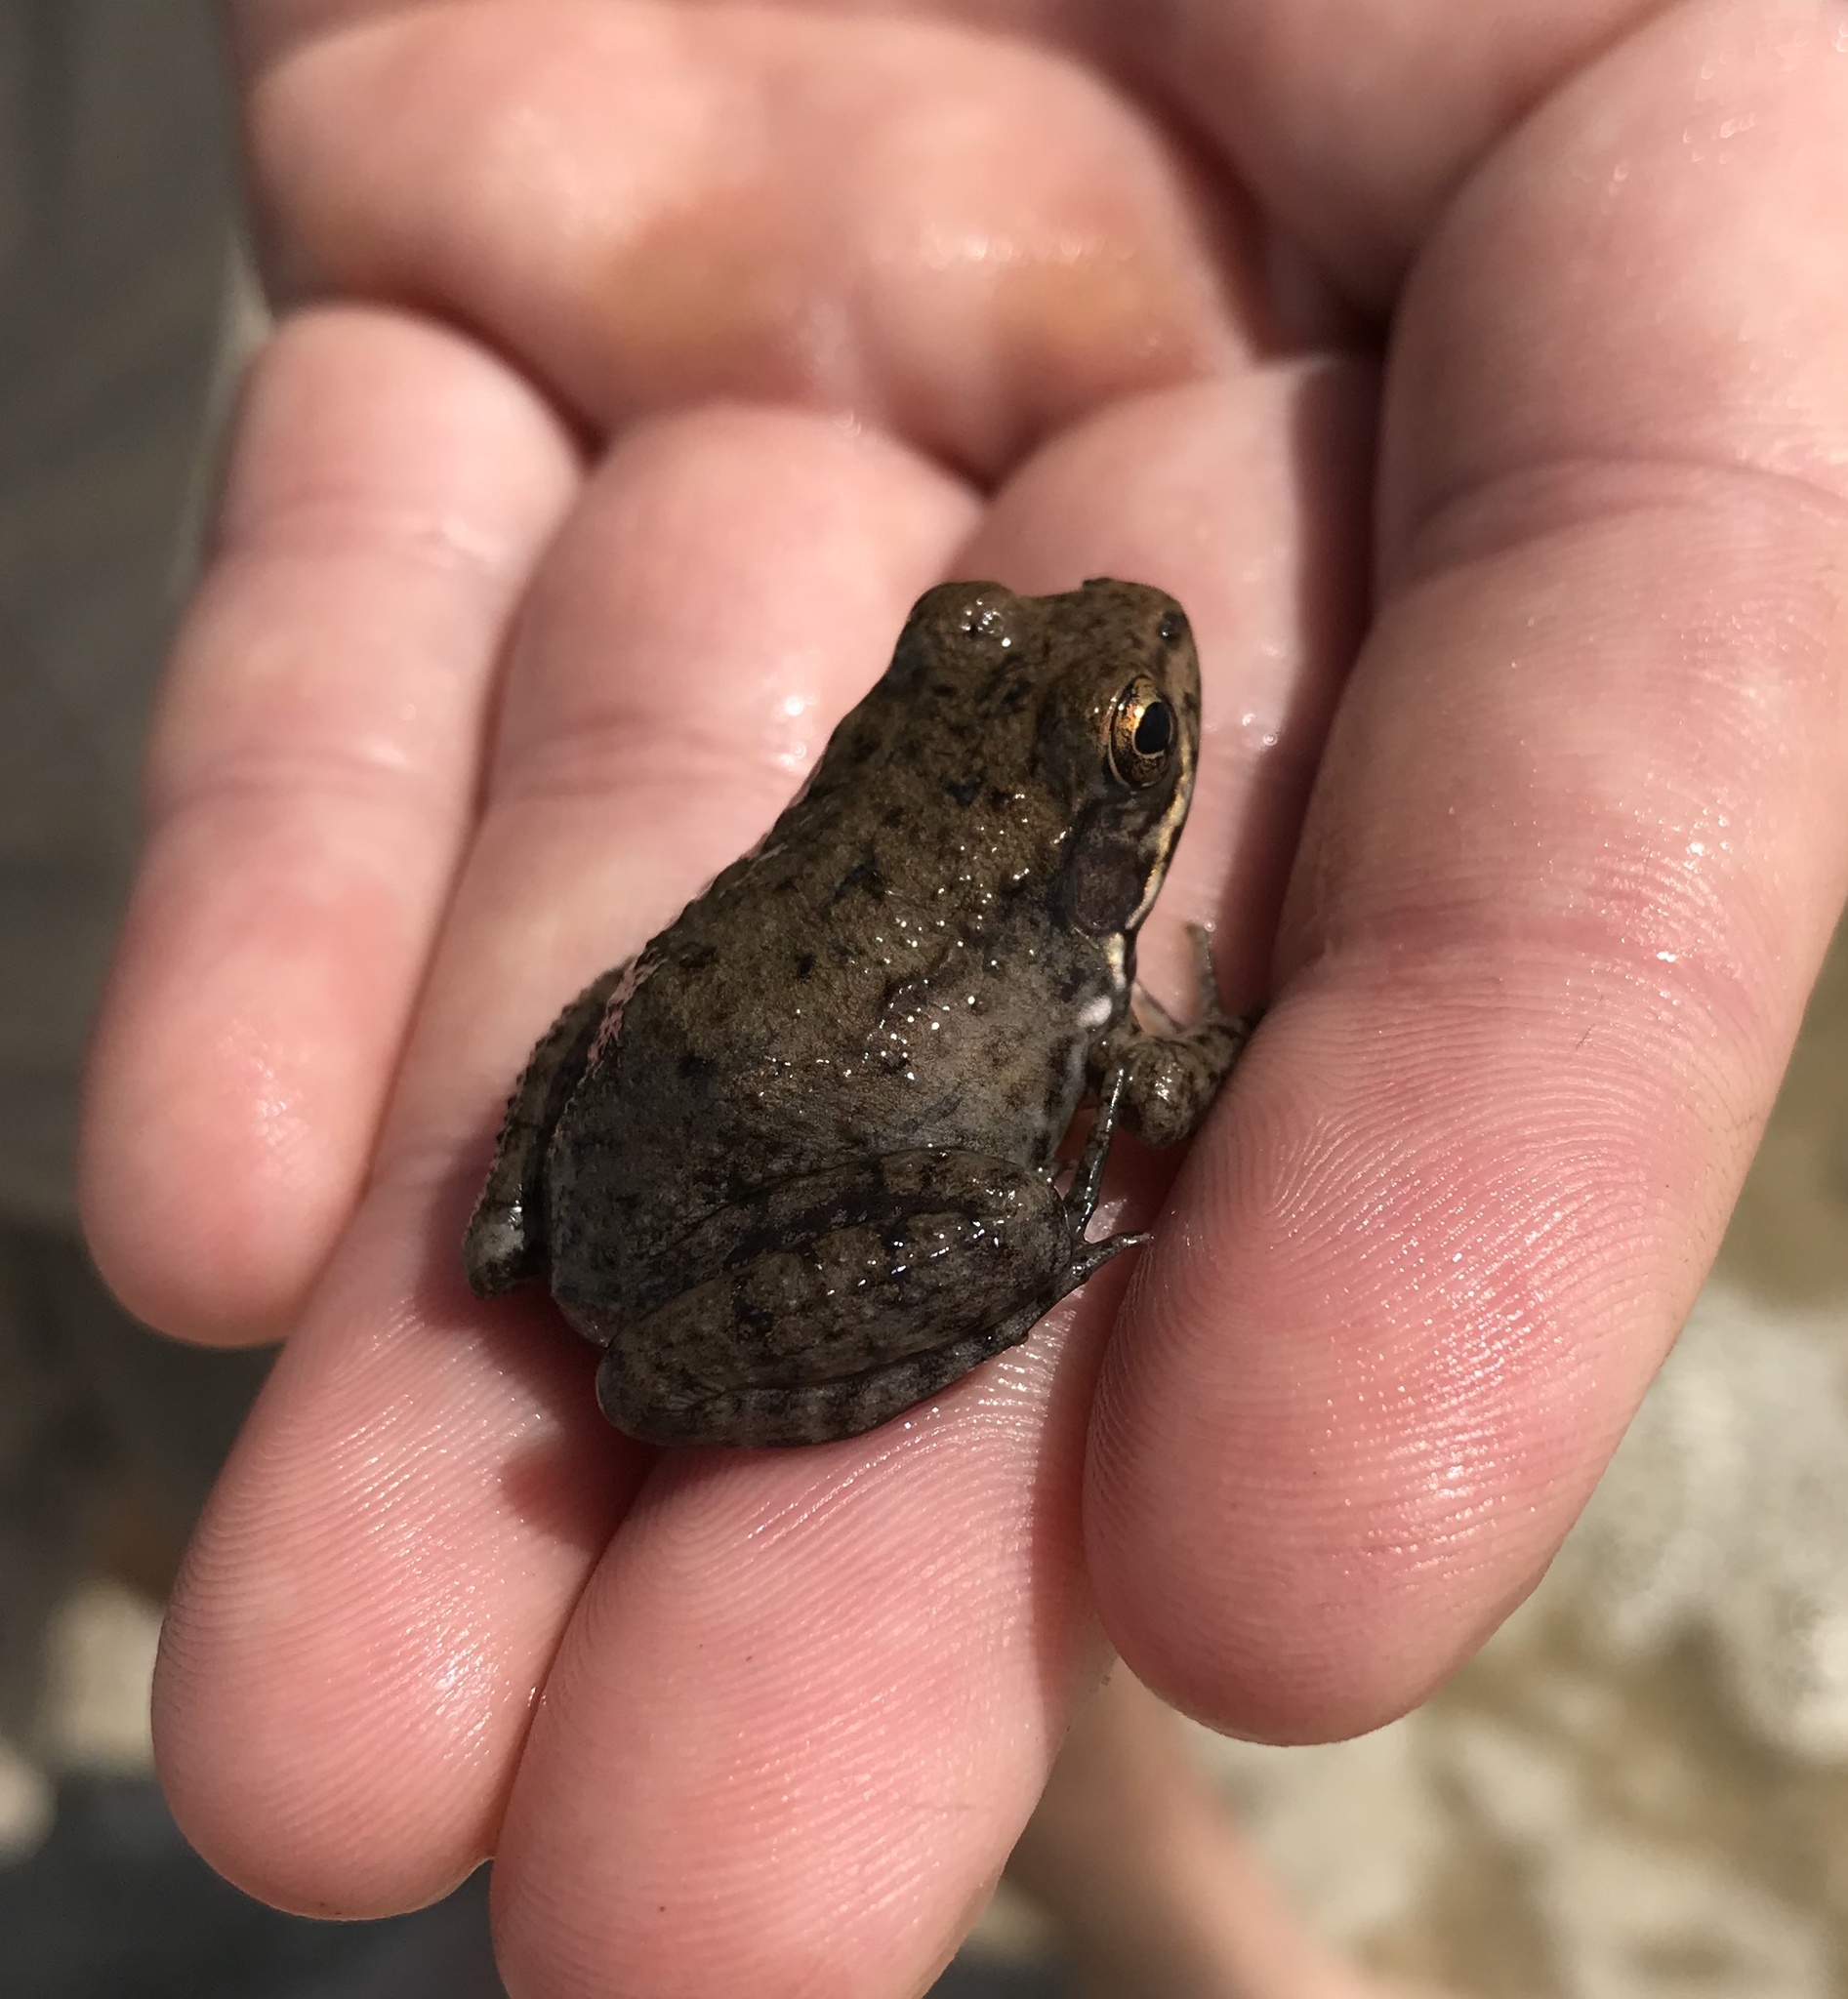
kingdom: Animalia
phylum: Chordata
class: Amphibia
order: Anura
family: Ranidae
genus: Lithobates
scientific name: Lithobates clamitans
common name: Green frog
